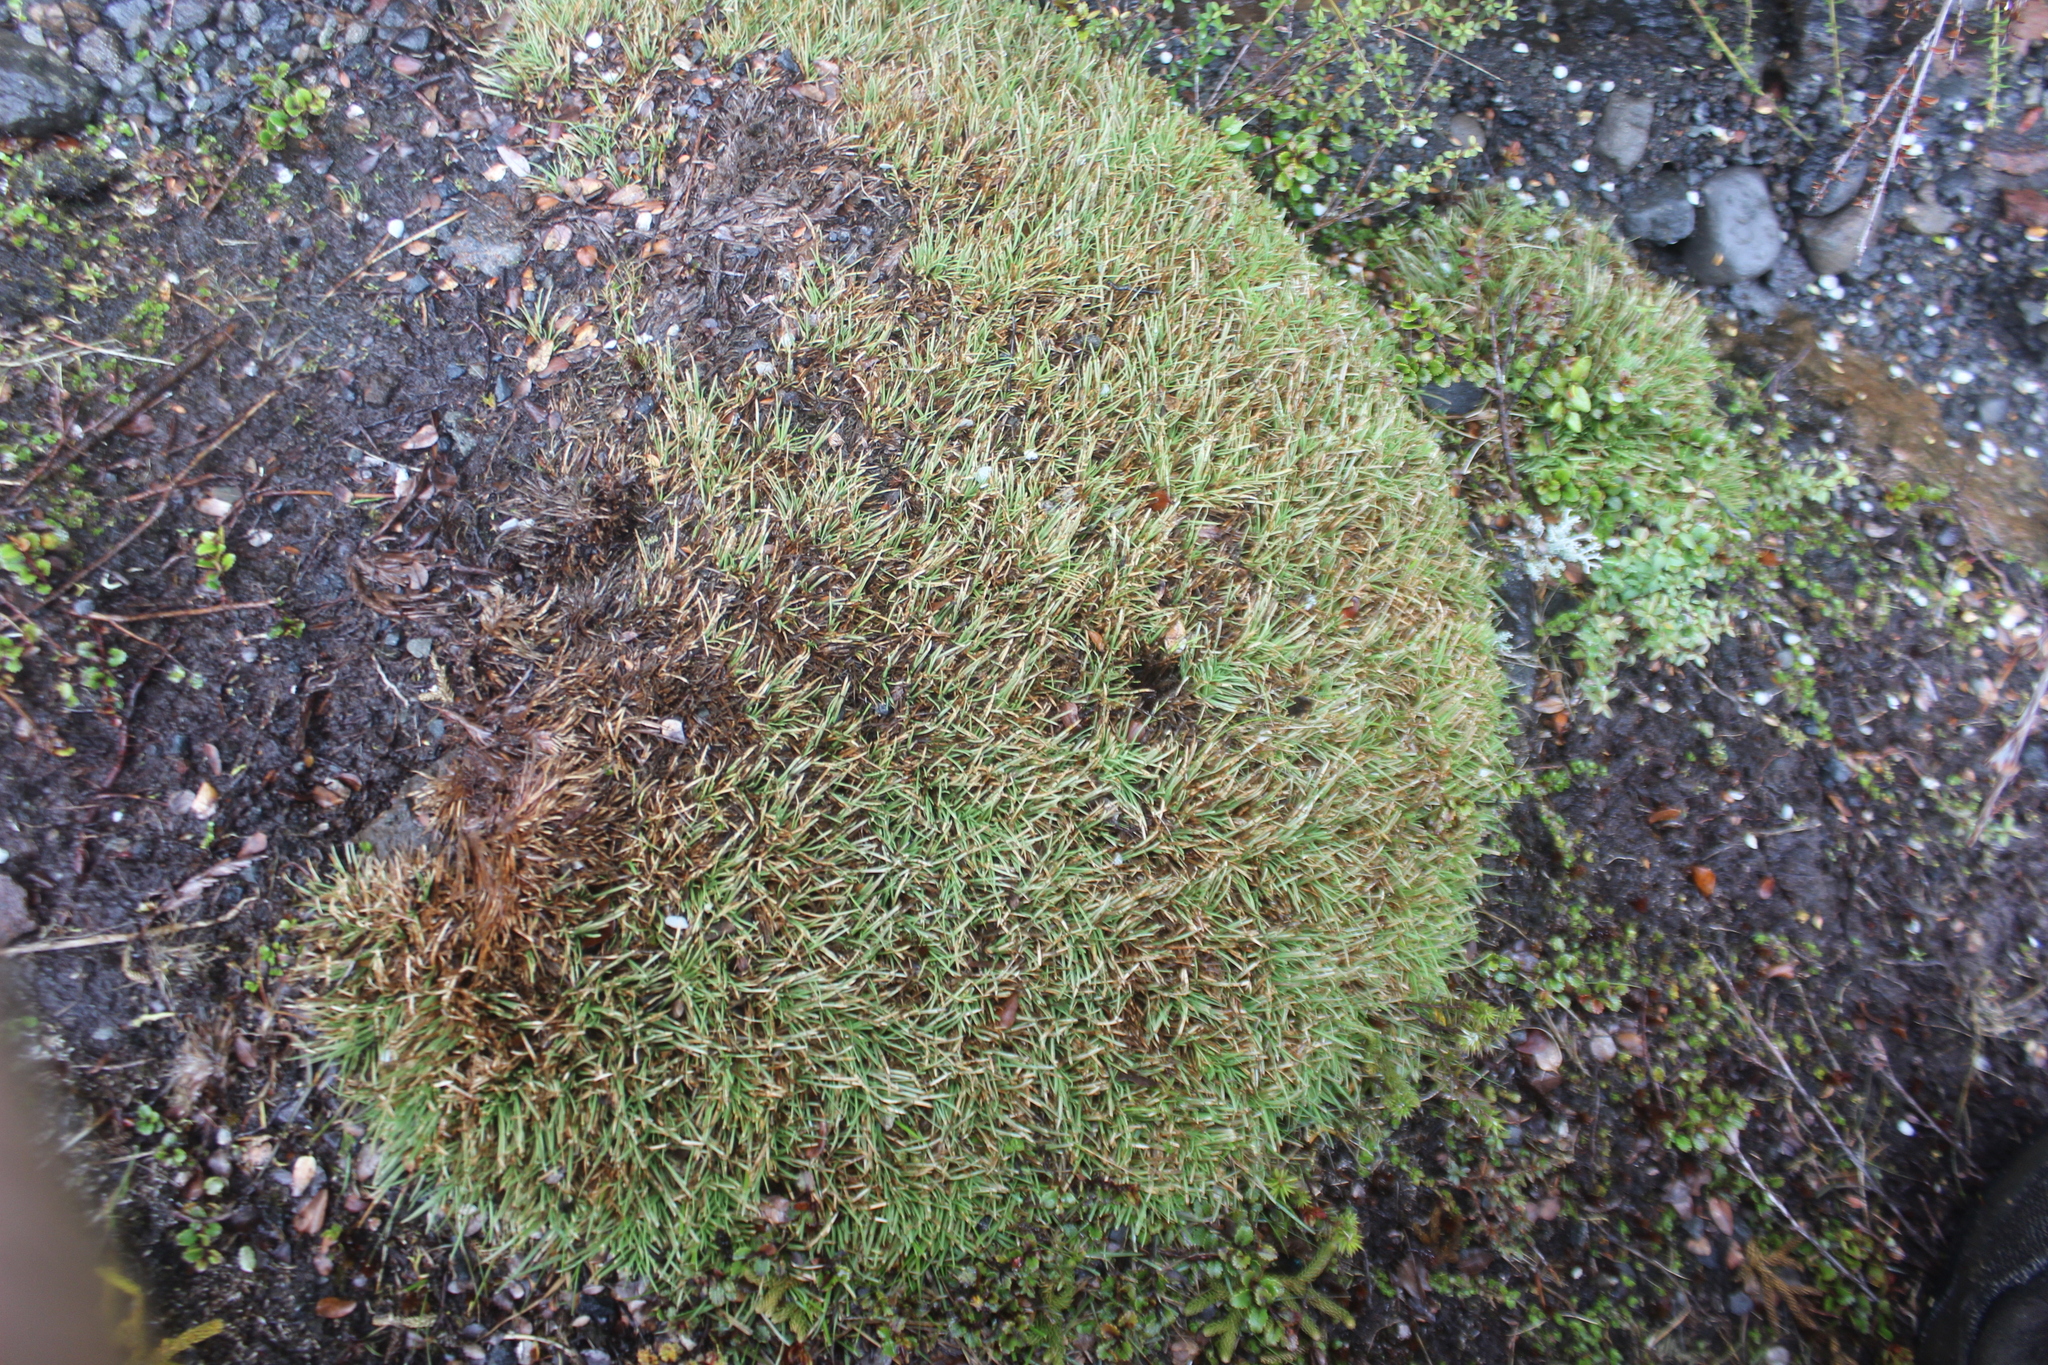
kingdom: Plantae
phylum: Tracheophyta
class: Liliopsida
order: Poales
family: Cyperaceae
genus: Oreobolus
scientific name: Oreobolus pectinatus
